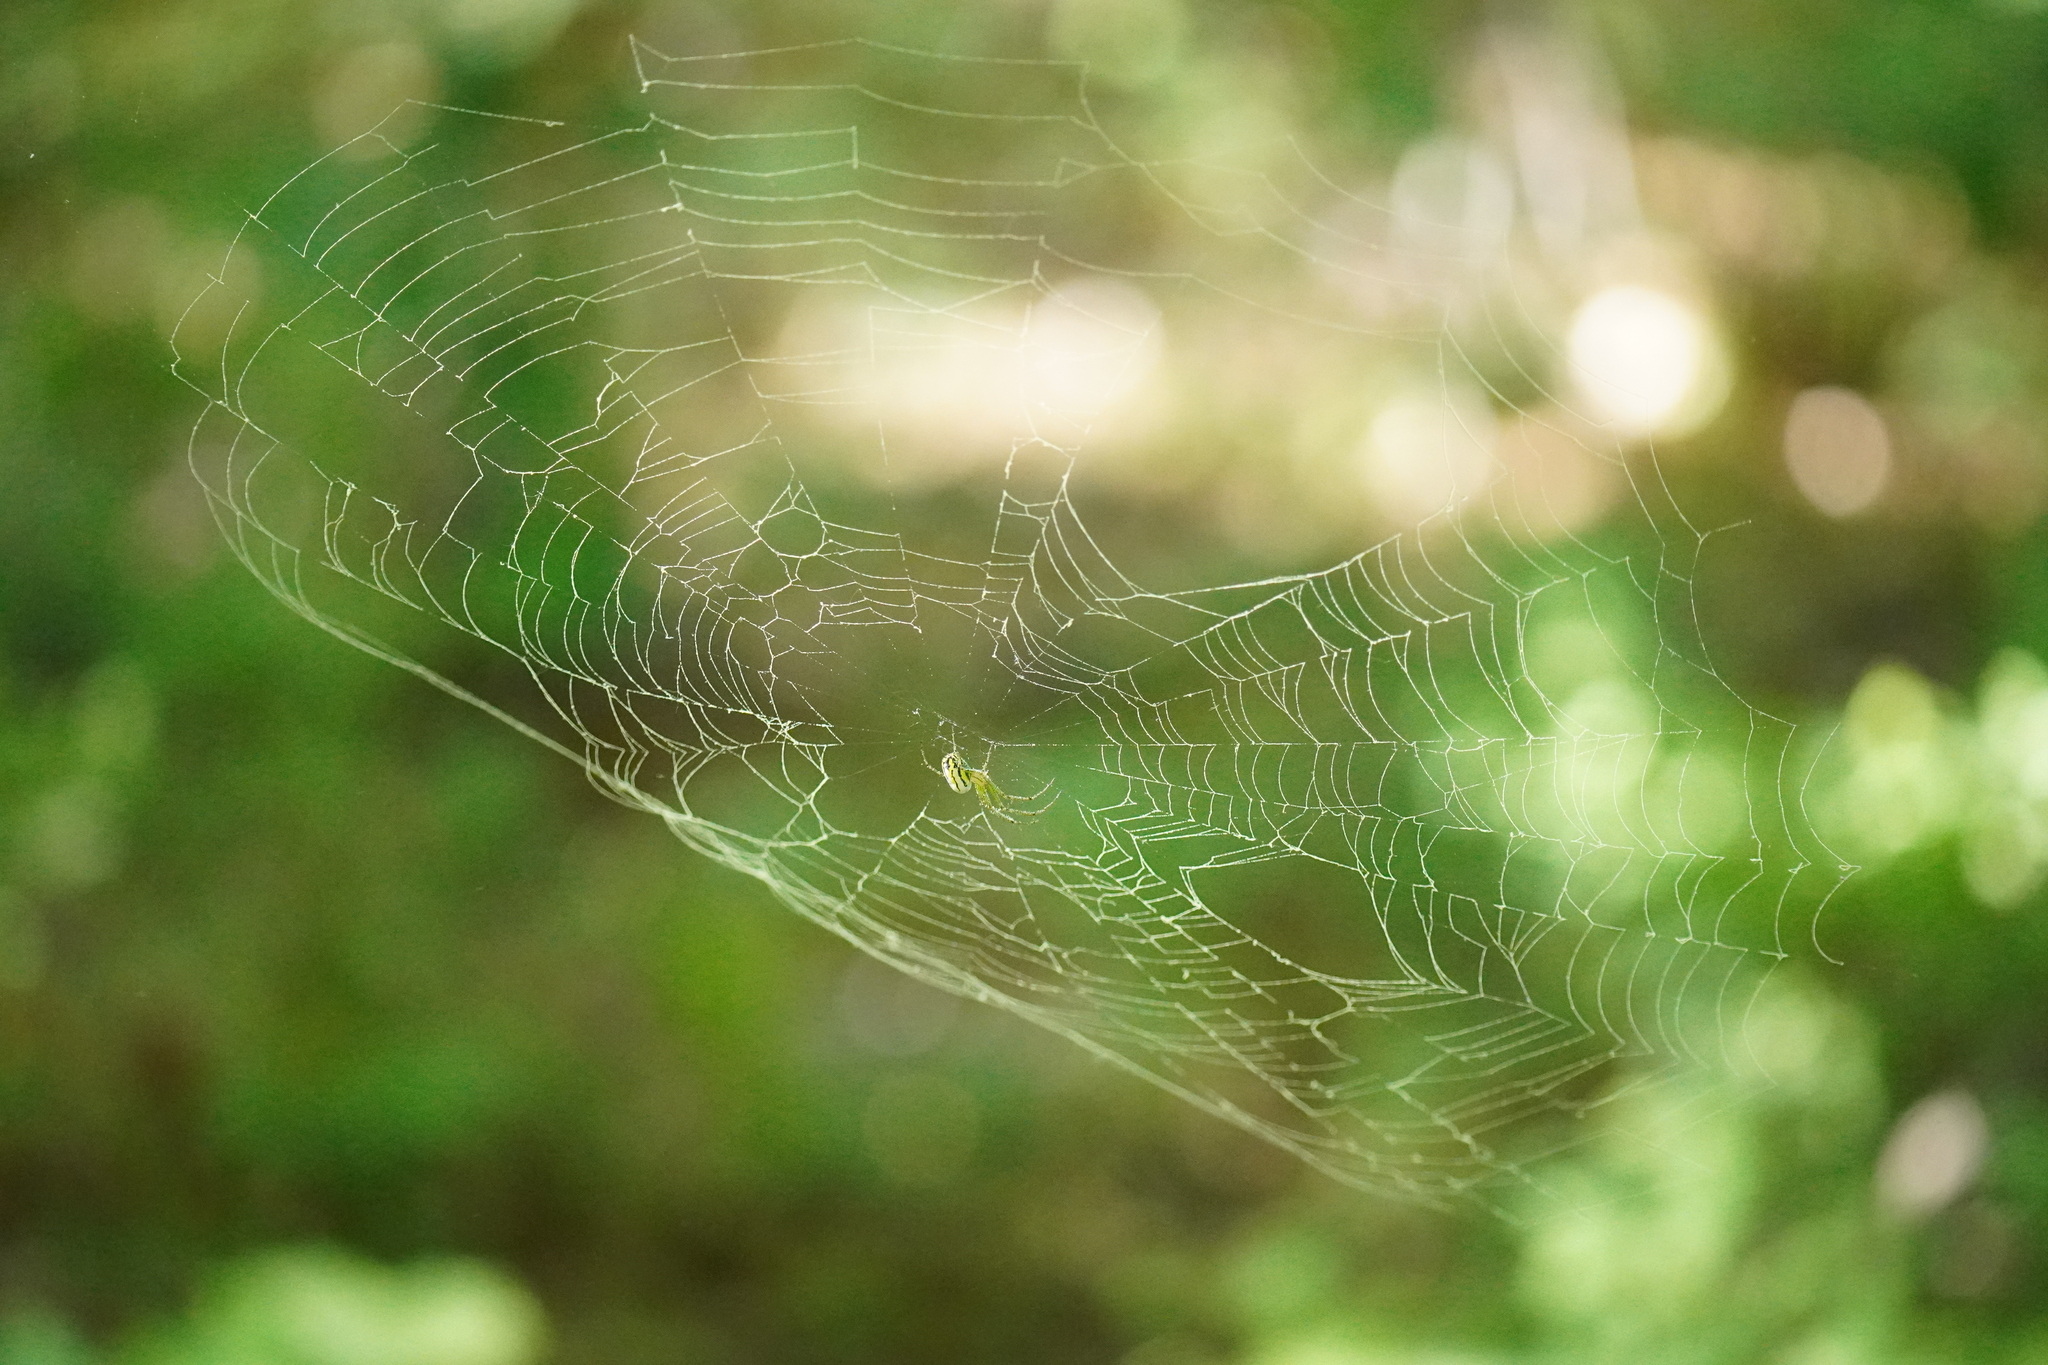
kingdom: Animalia
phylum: Arthropoda
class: Arachnida
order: Araneae
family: Tetragnathidae
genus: Leucauge
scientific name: Leucauge venusta
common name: Longjawed orb weavers
